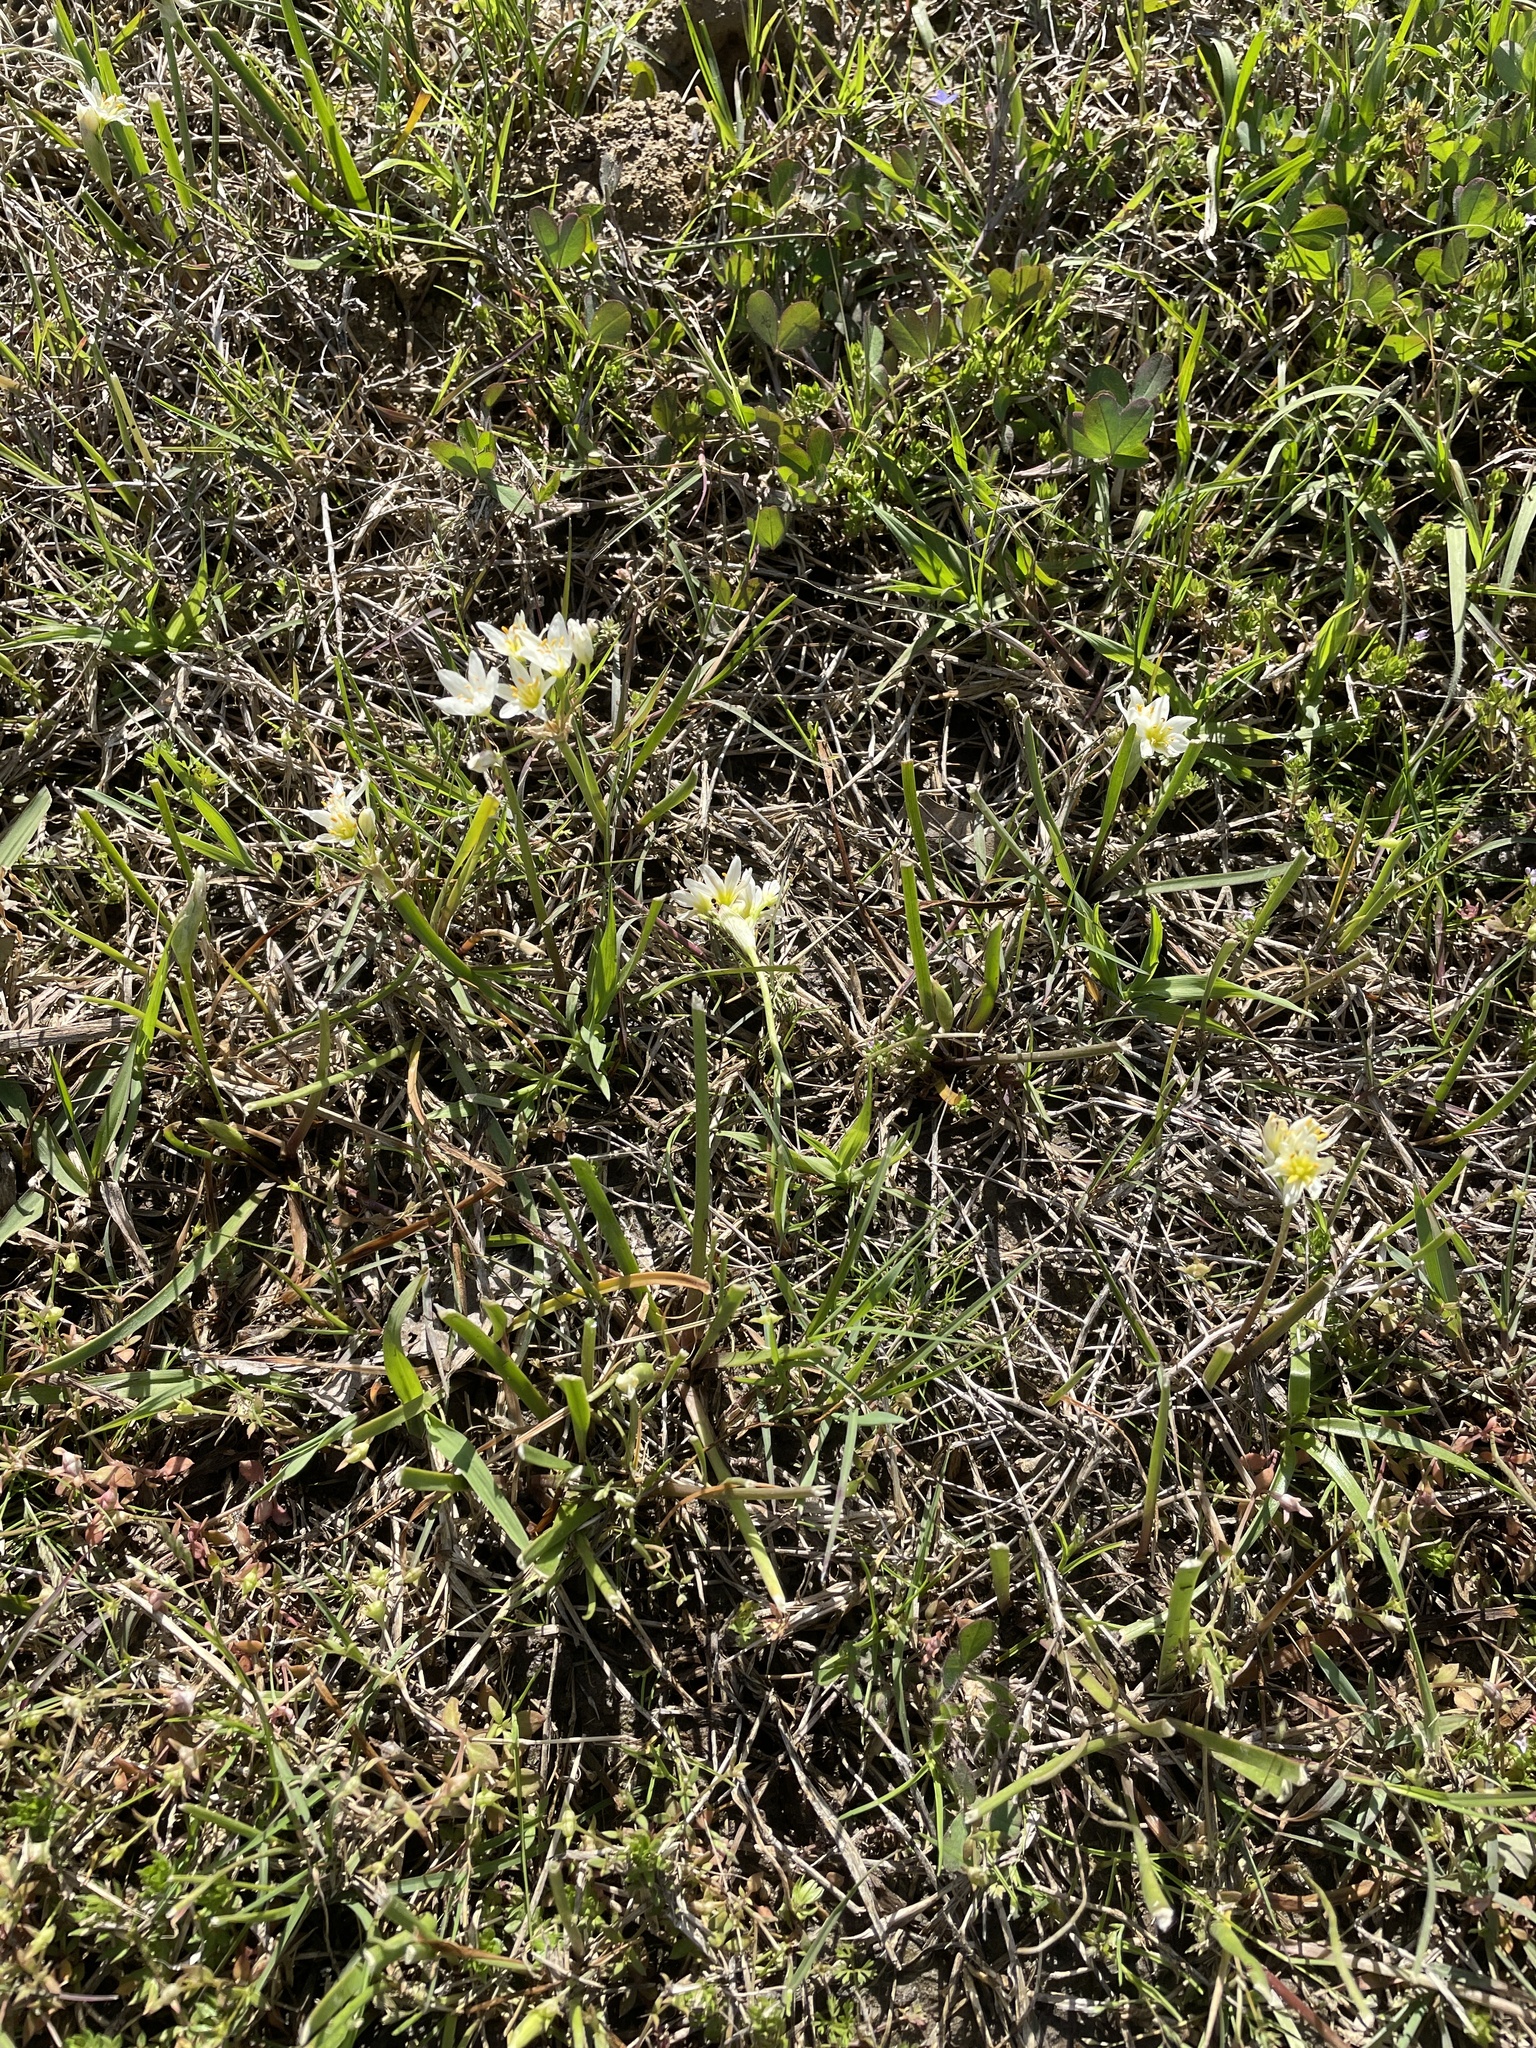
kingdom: Plantae
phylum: Tracheophyta
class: Liliopsida
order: Asparagales
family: Amaryllidaceae
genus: Nothoscordum
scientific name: Nothoscordum bivalve
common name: Crow-poison
